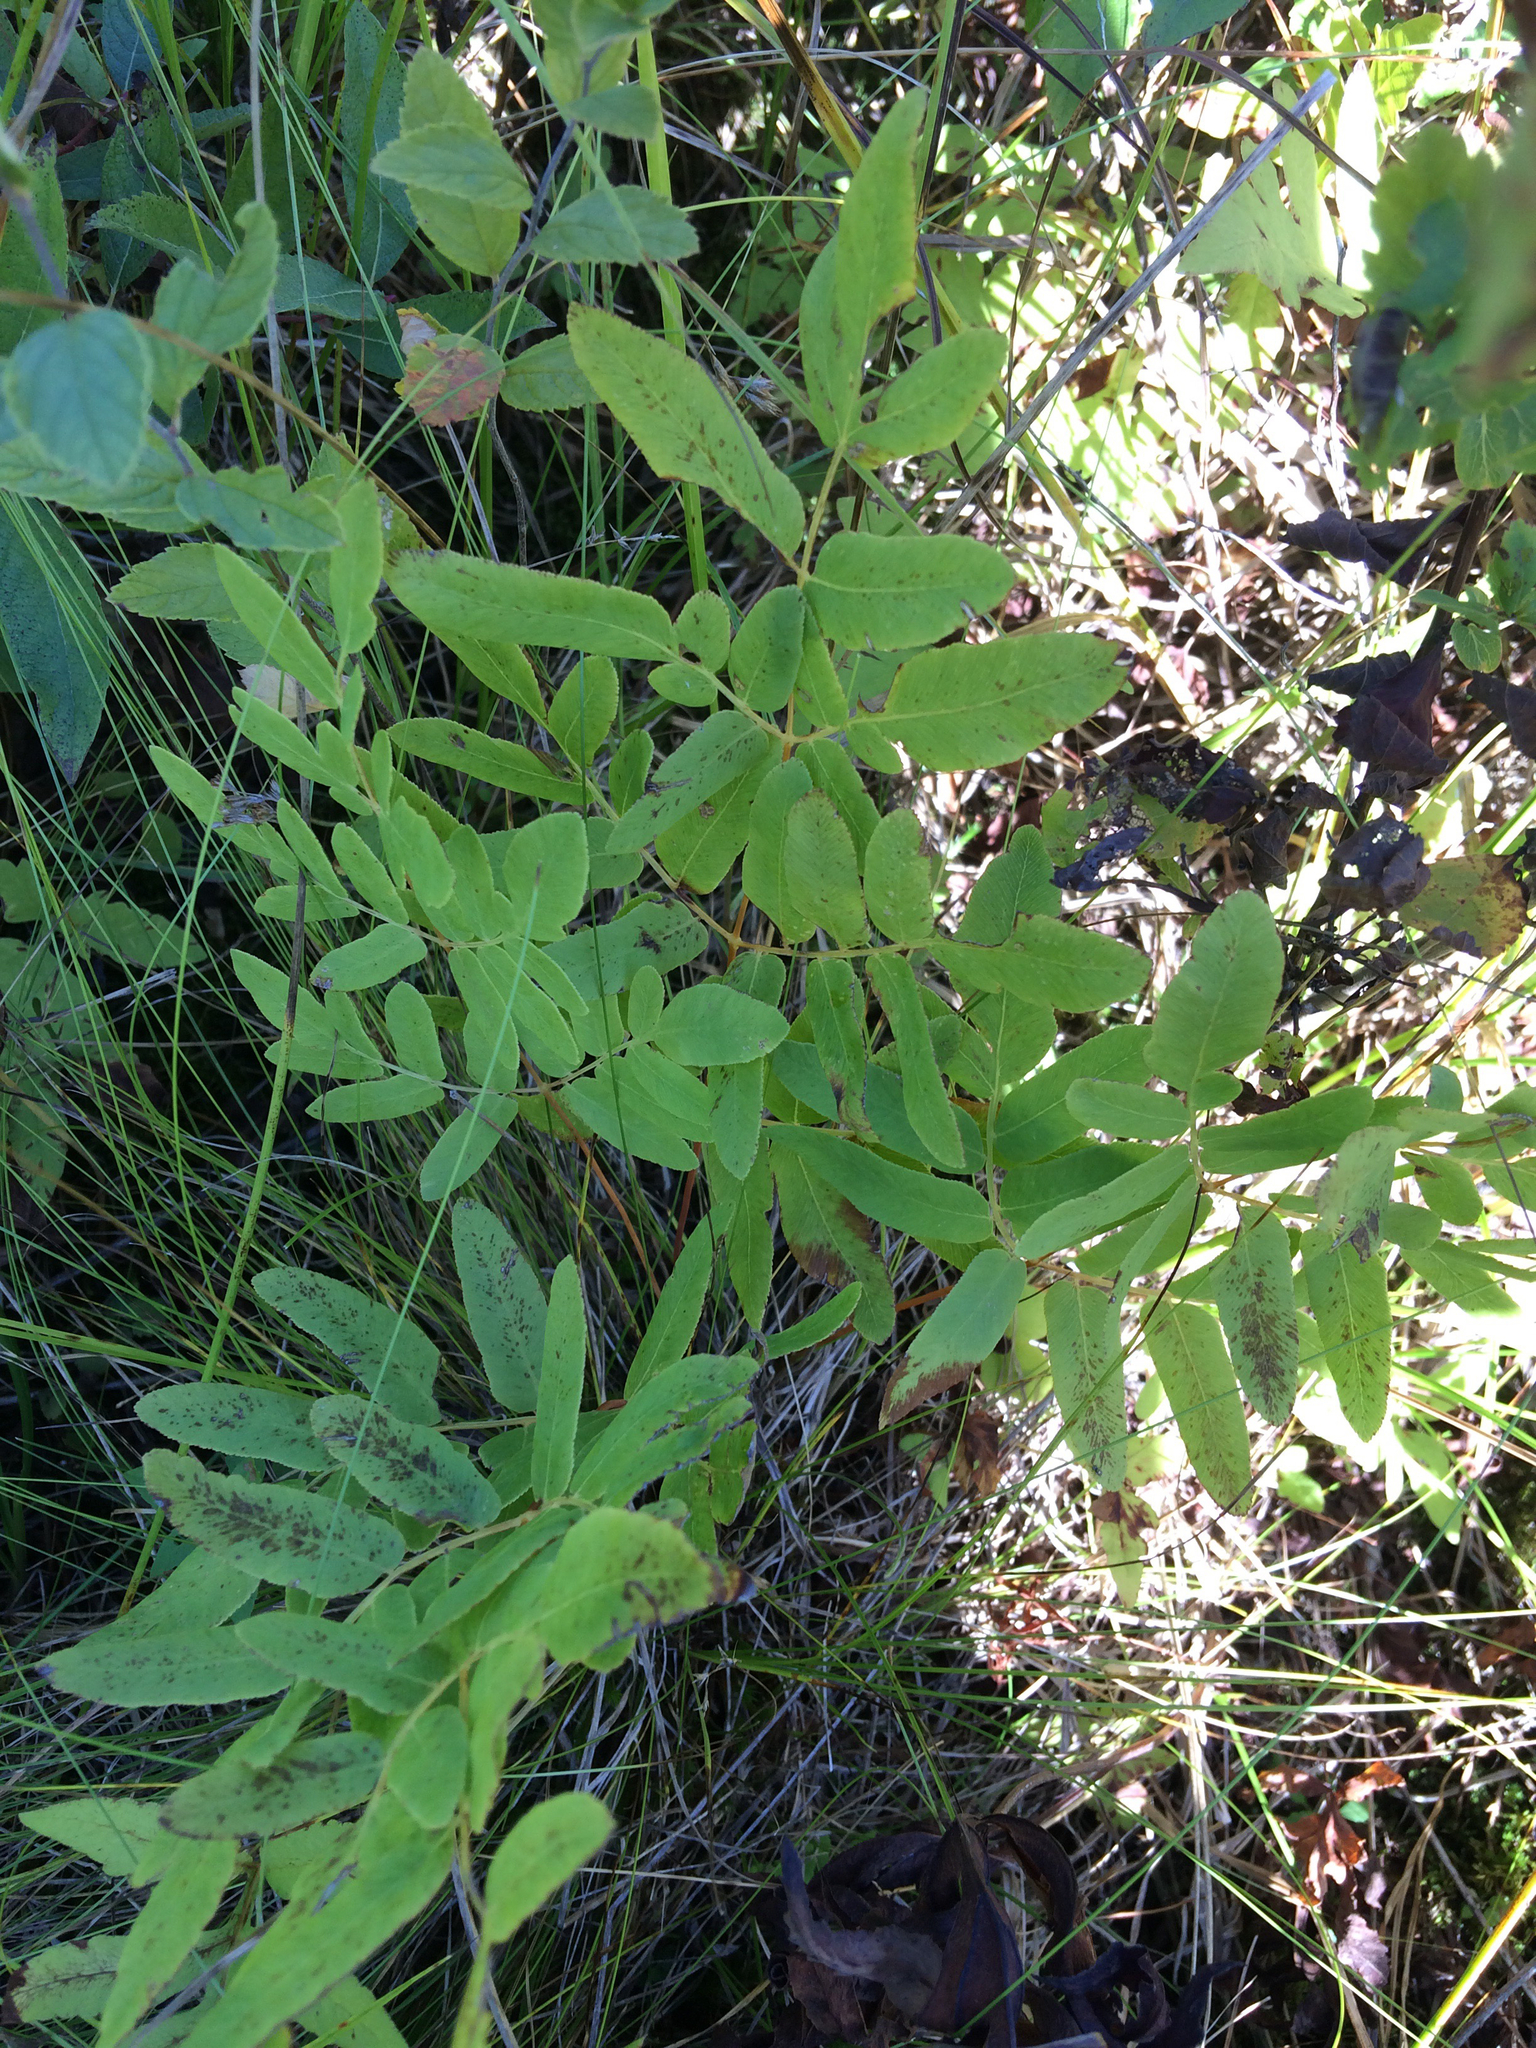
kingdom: Plantae
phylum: Tracheophyta
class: Polypodiopsida
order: Osmundales
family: Osmundaceae
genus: Osmunda
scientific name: Osmunda spectabilis
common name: American royal fern
